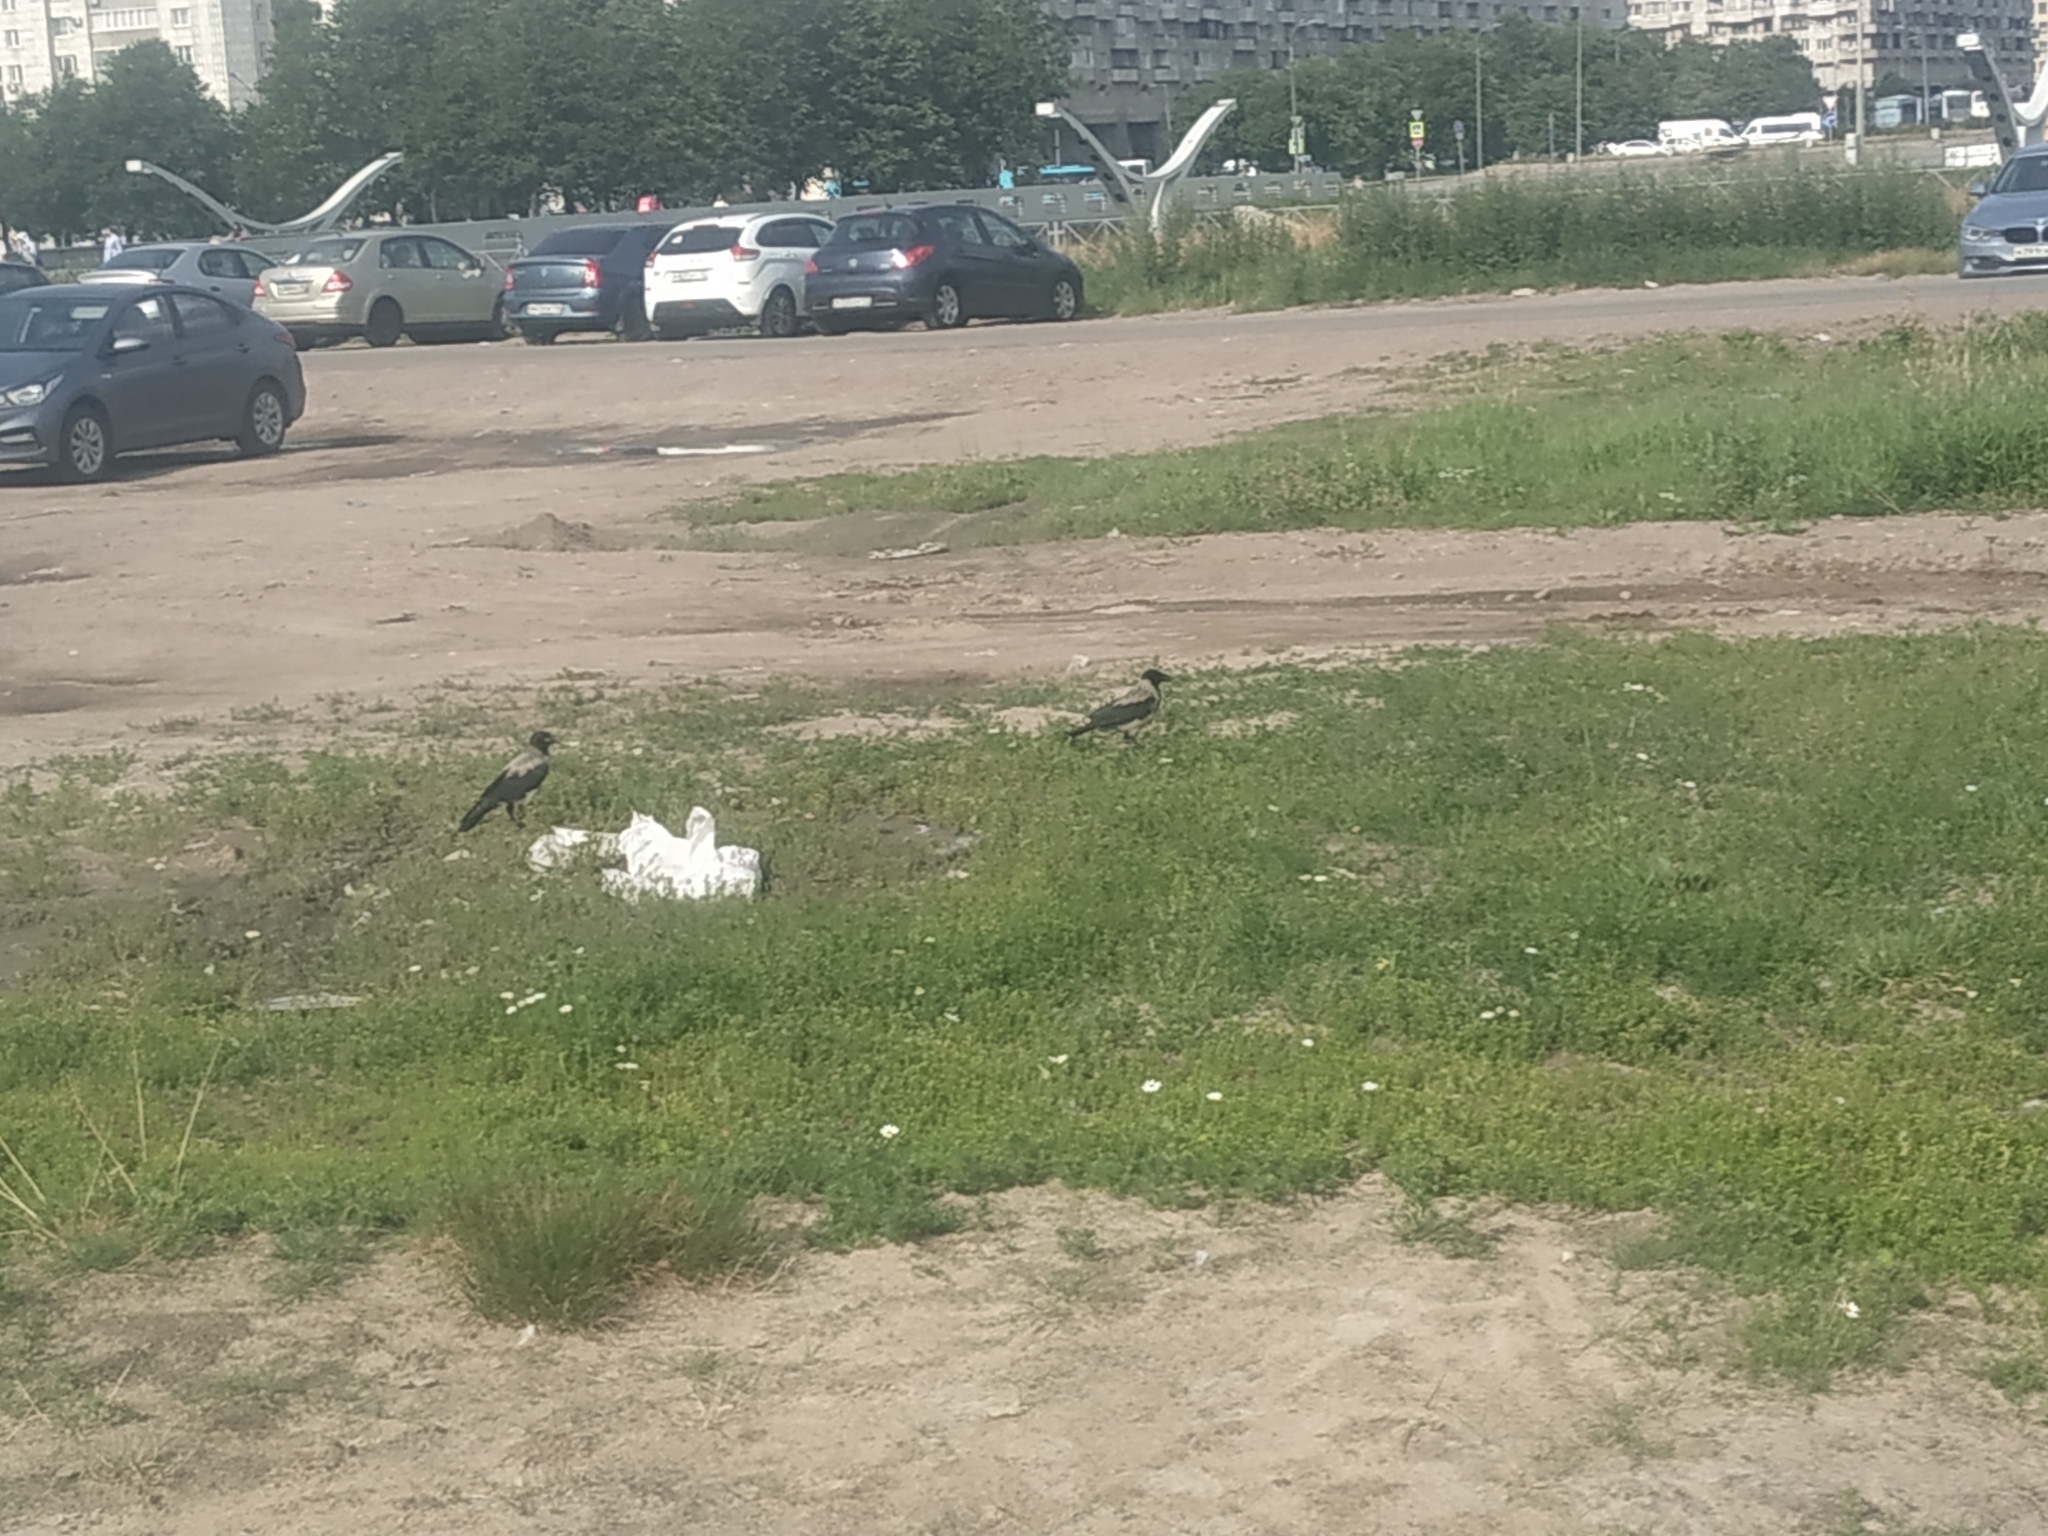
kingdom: Animalia
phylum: Chordata
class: Aves
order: Passeriformes
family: Corvidae
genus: Corvus
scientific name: Corvus cornix
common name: Hooded crow
